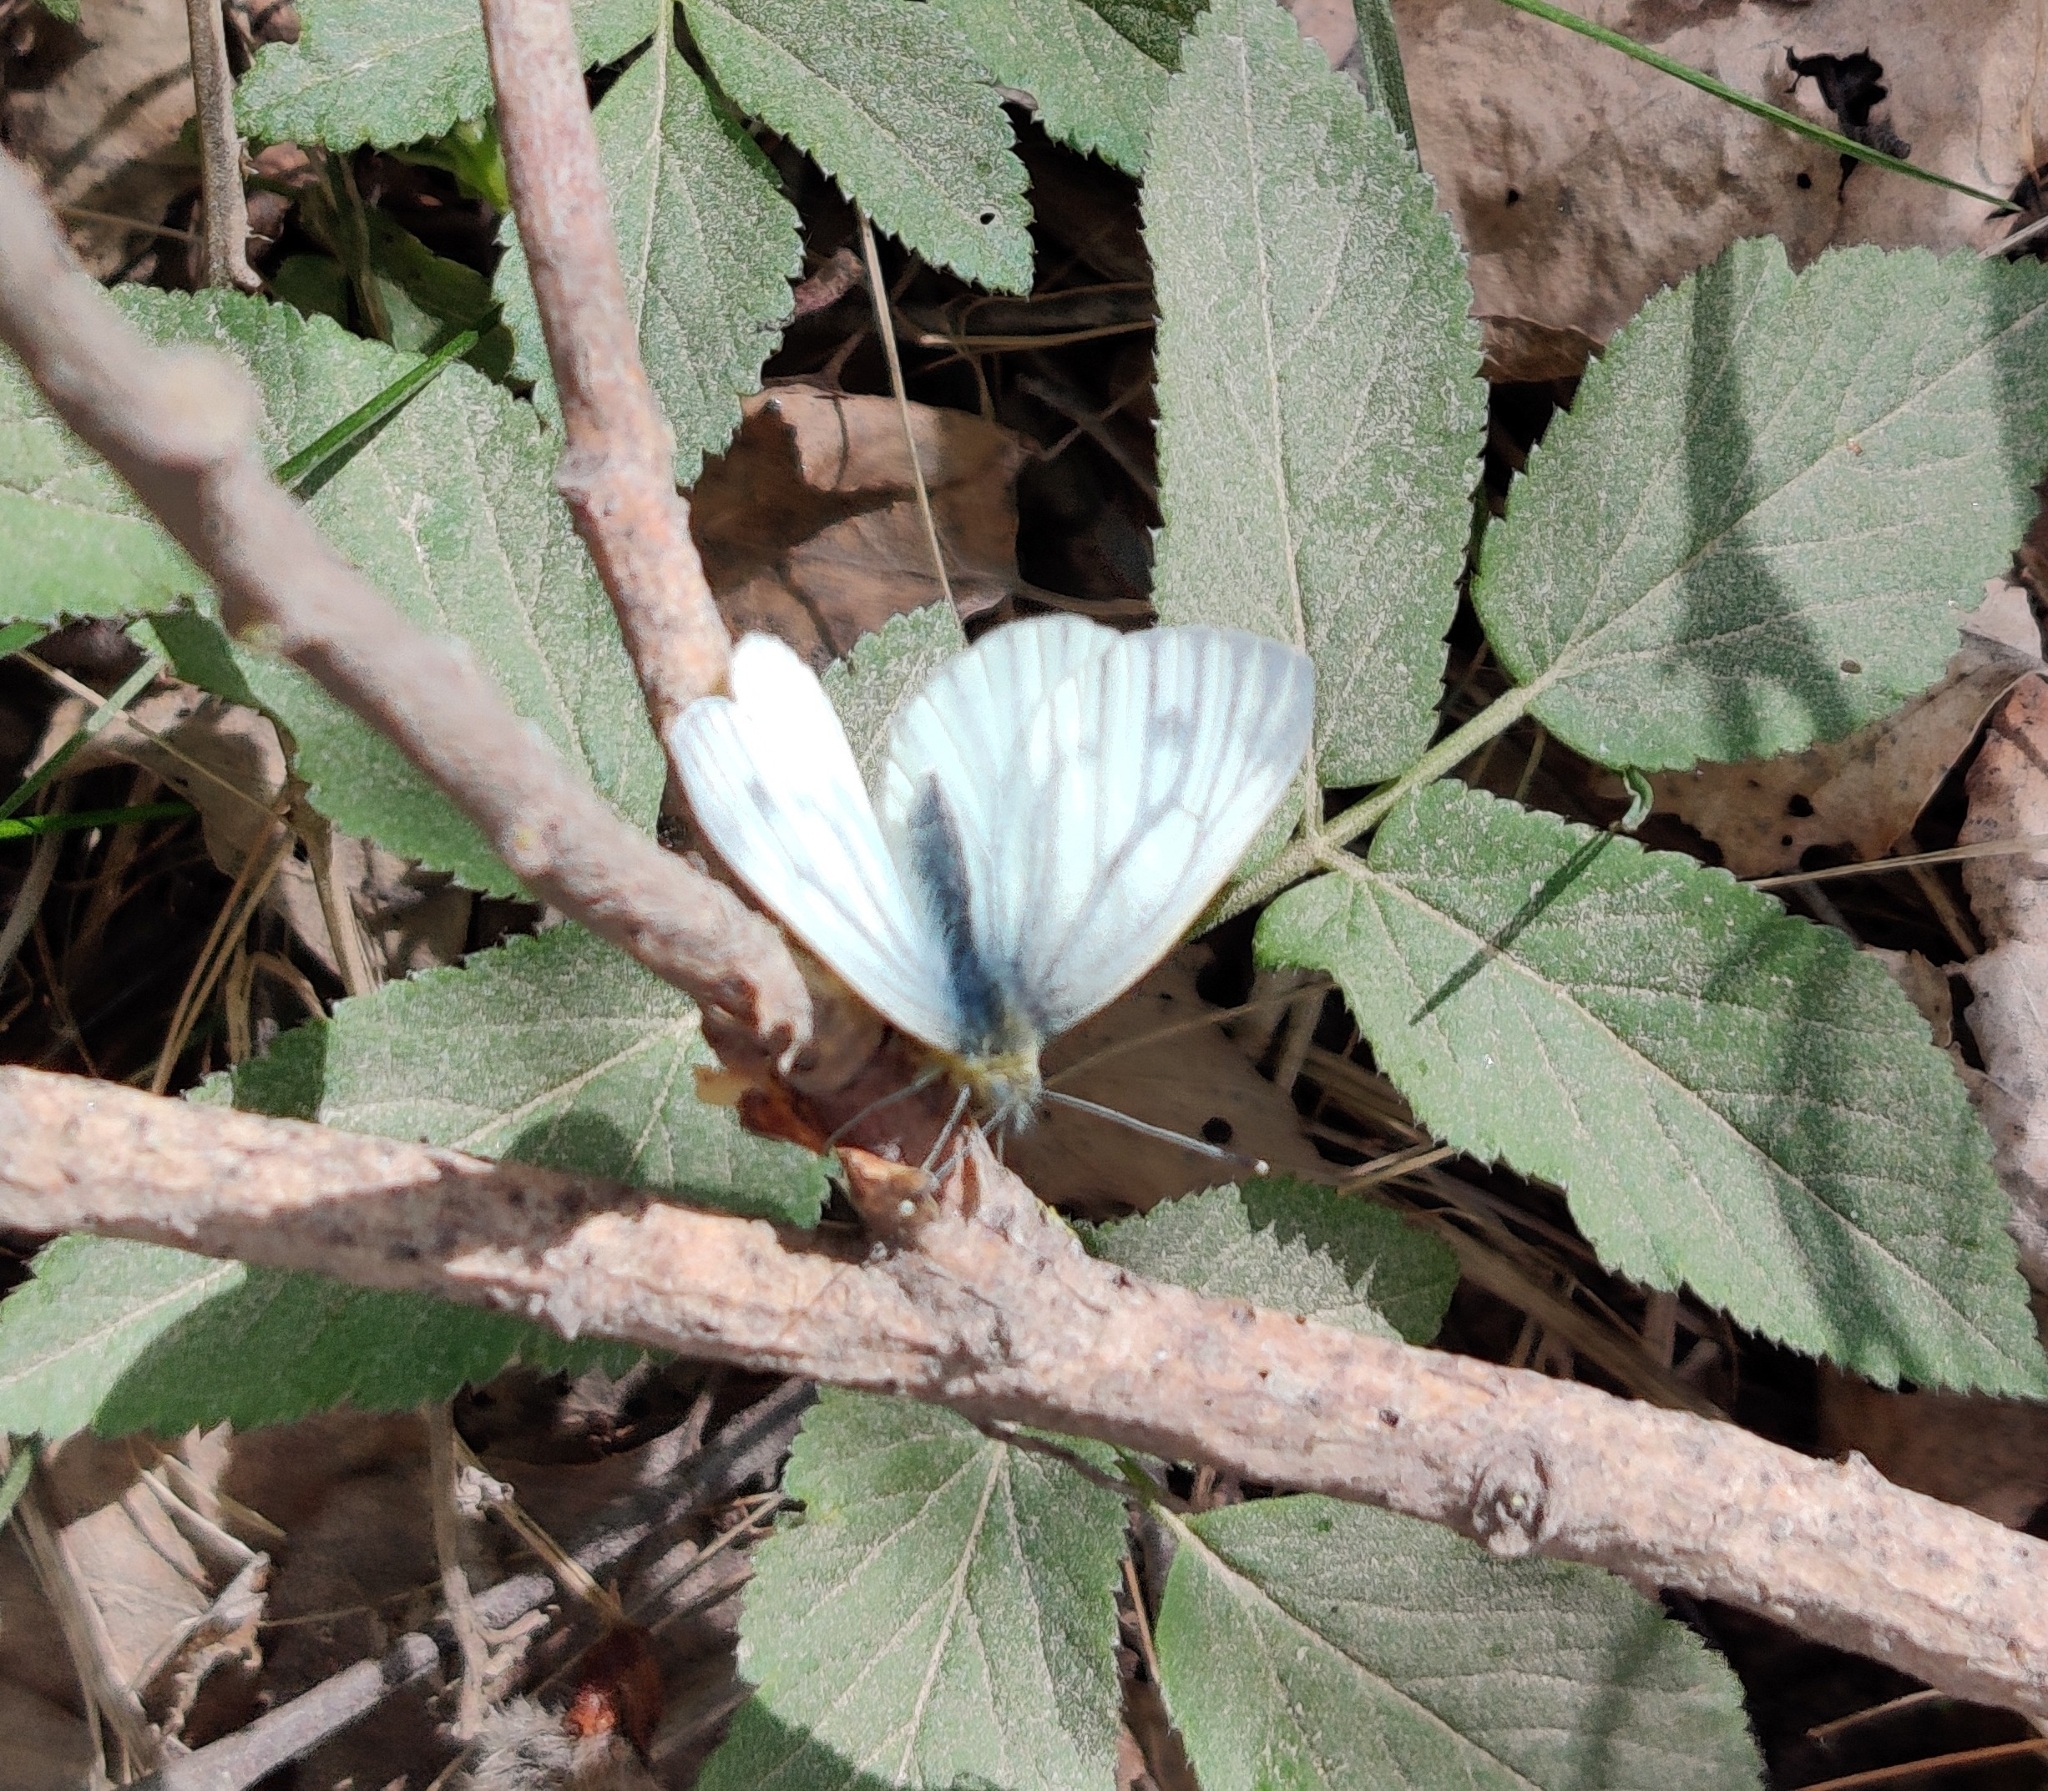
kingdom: Animalia
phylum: Arthropoda
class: Insecta
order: Lepidoptera
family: Pieridae
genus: Pieris
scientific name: Pieris napi
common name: Green-veined white
